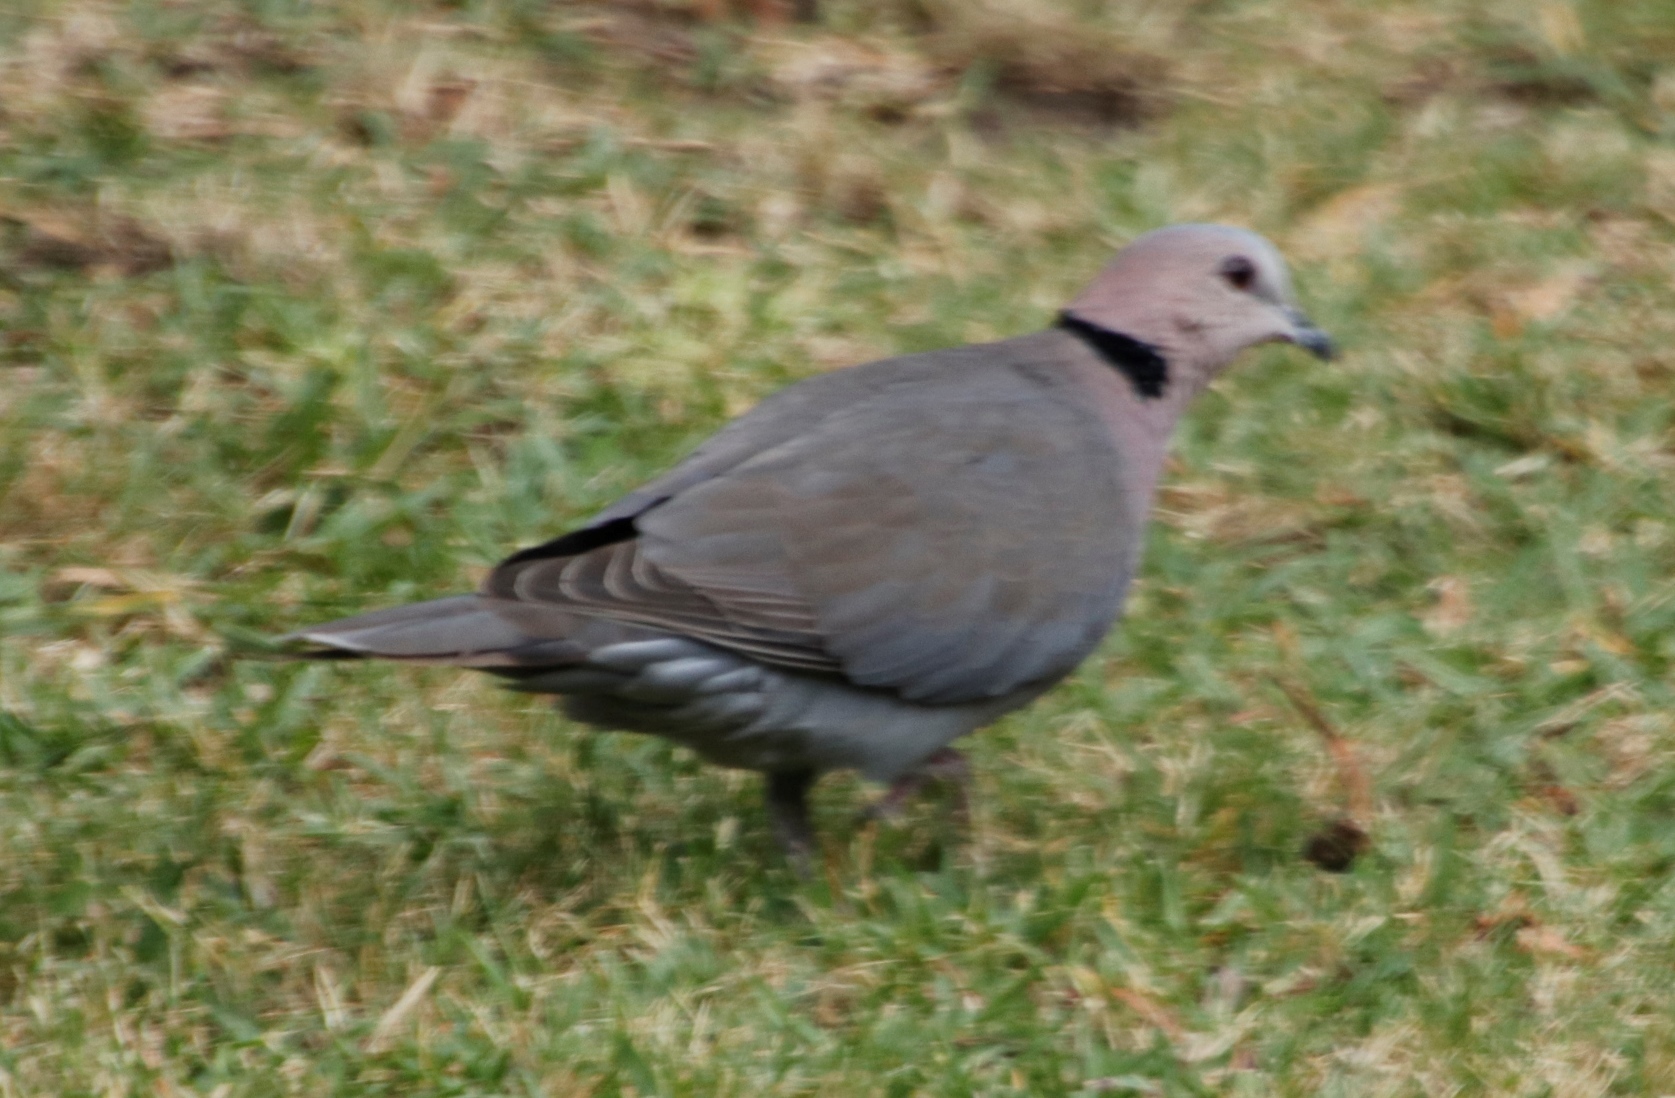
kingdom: Animalia
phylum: Chordata
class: Aves
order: Columbiformes
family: Columbidae
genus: Streptopelia
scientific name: Streptopelia semitorquata
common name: Red-eyed dove
